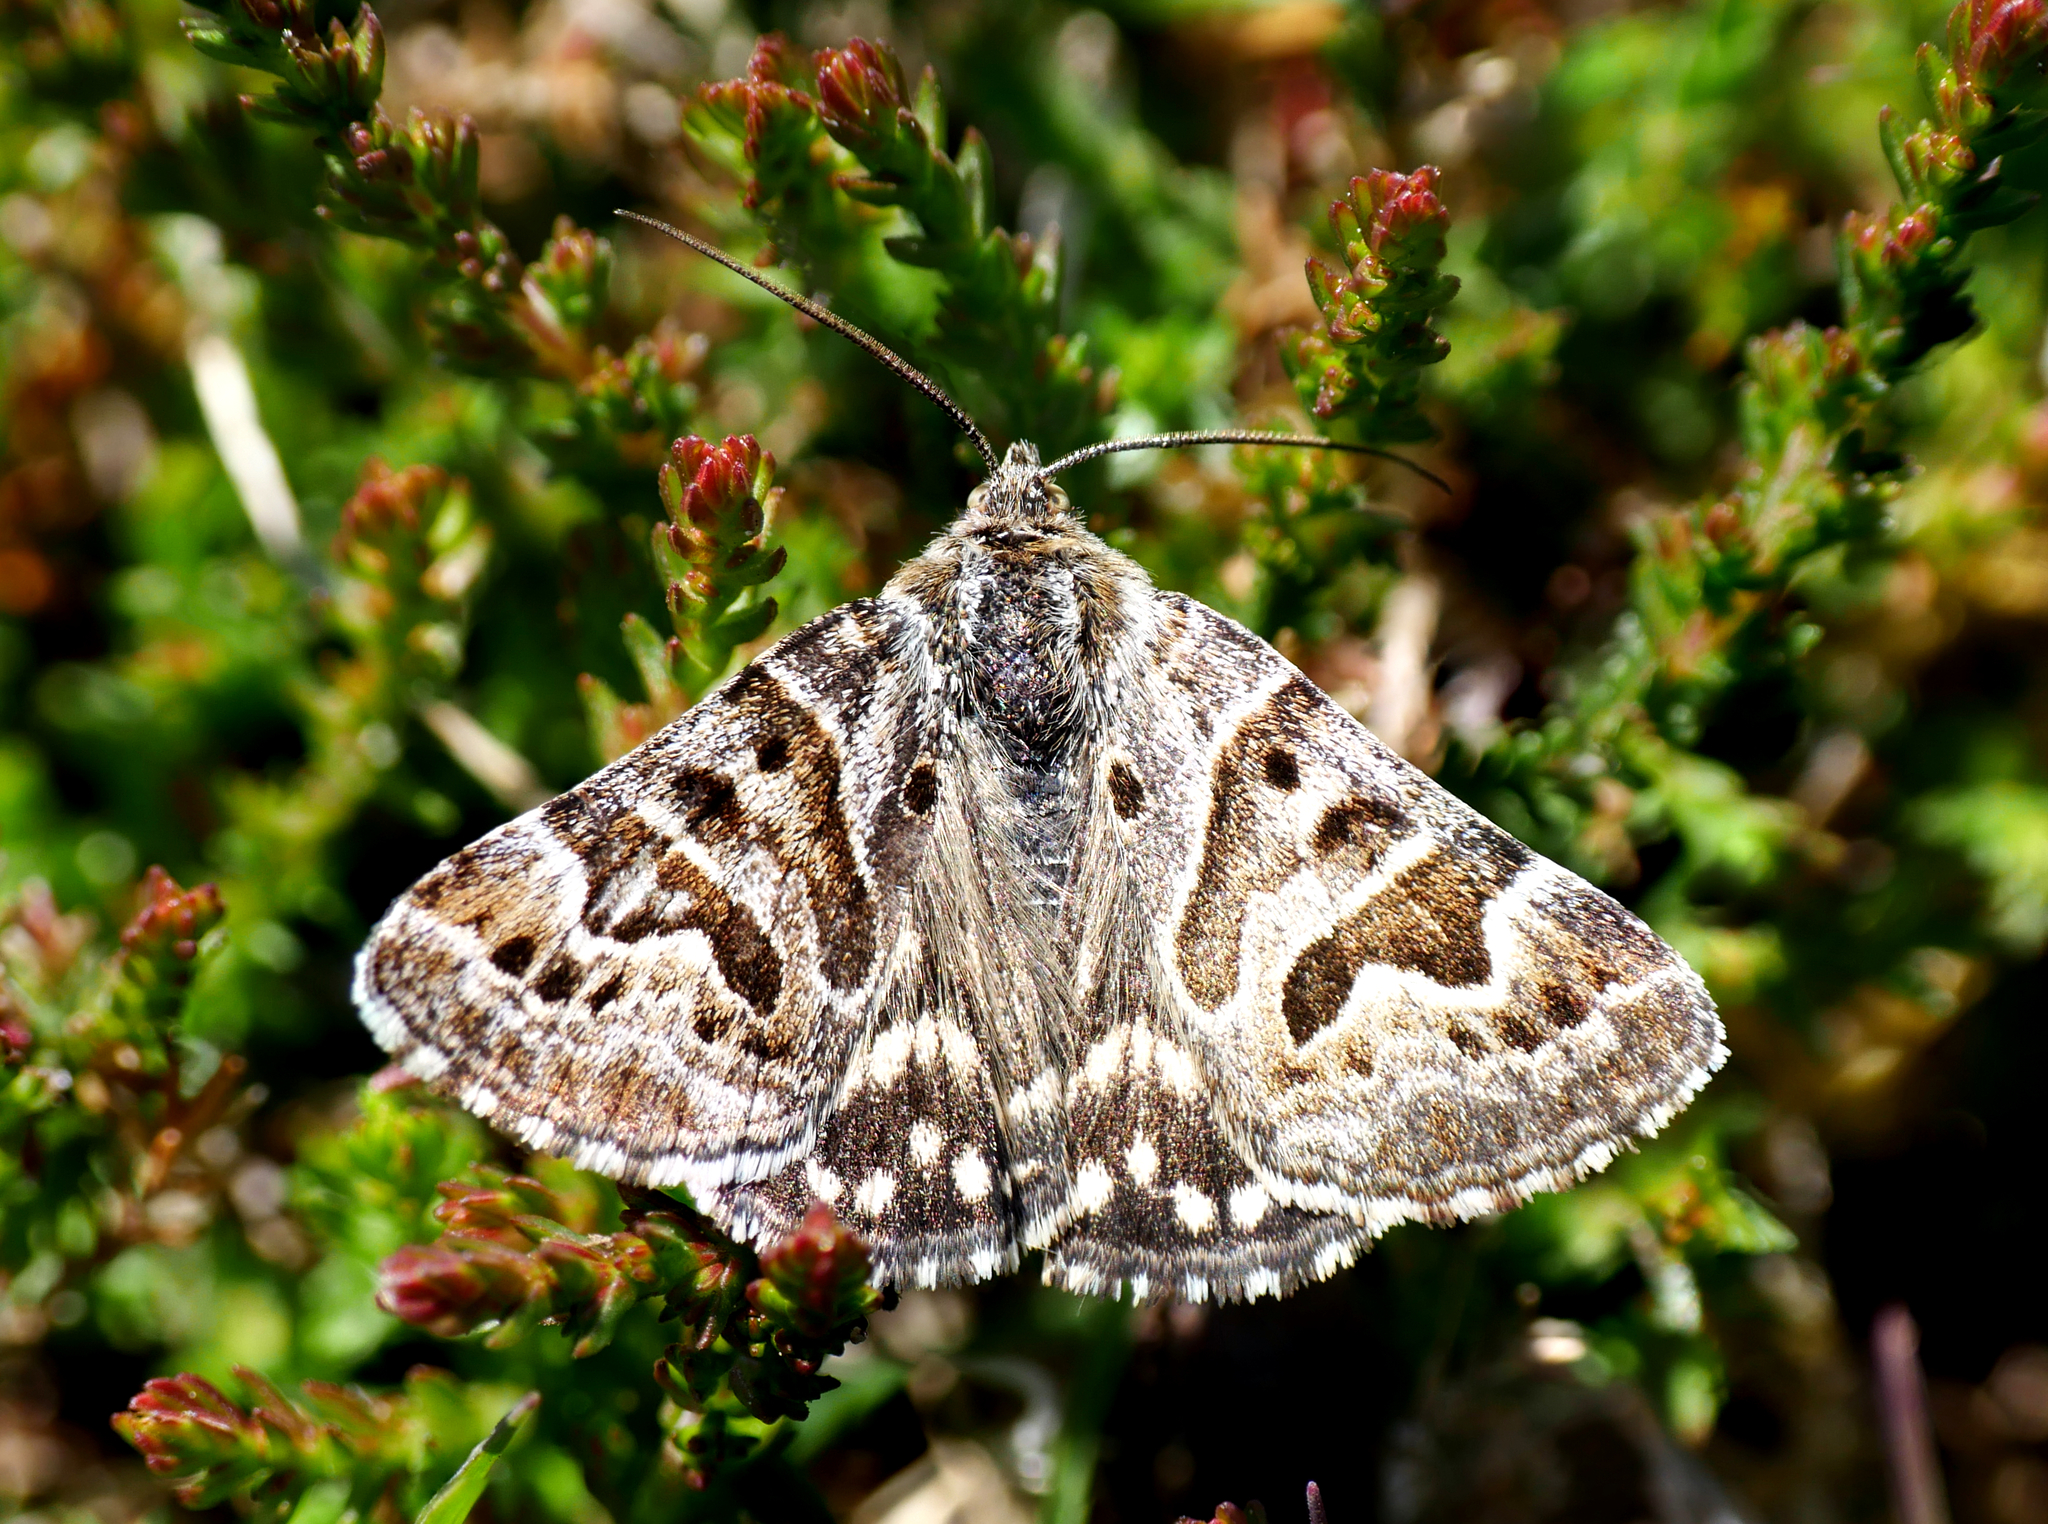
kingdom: Animalia
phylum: Arthropoda
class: Insecta
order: Lepidoptera
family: Erebidae
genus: Callistege
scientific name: Callistege mi
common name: Mother shipton
